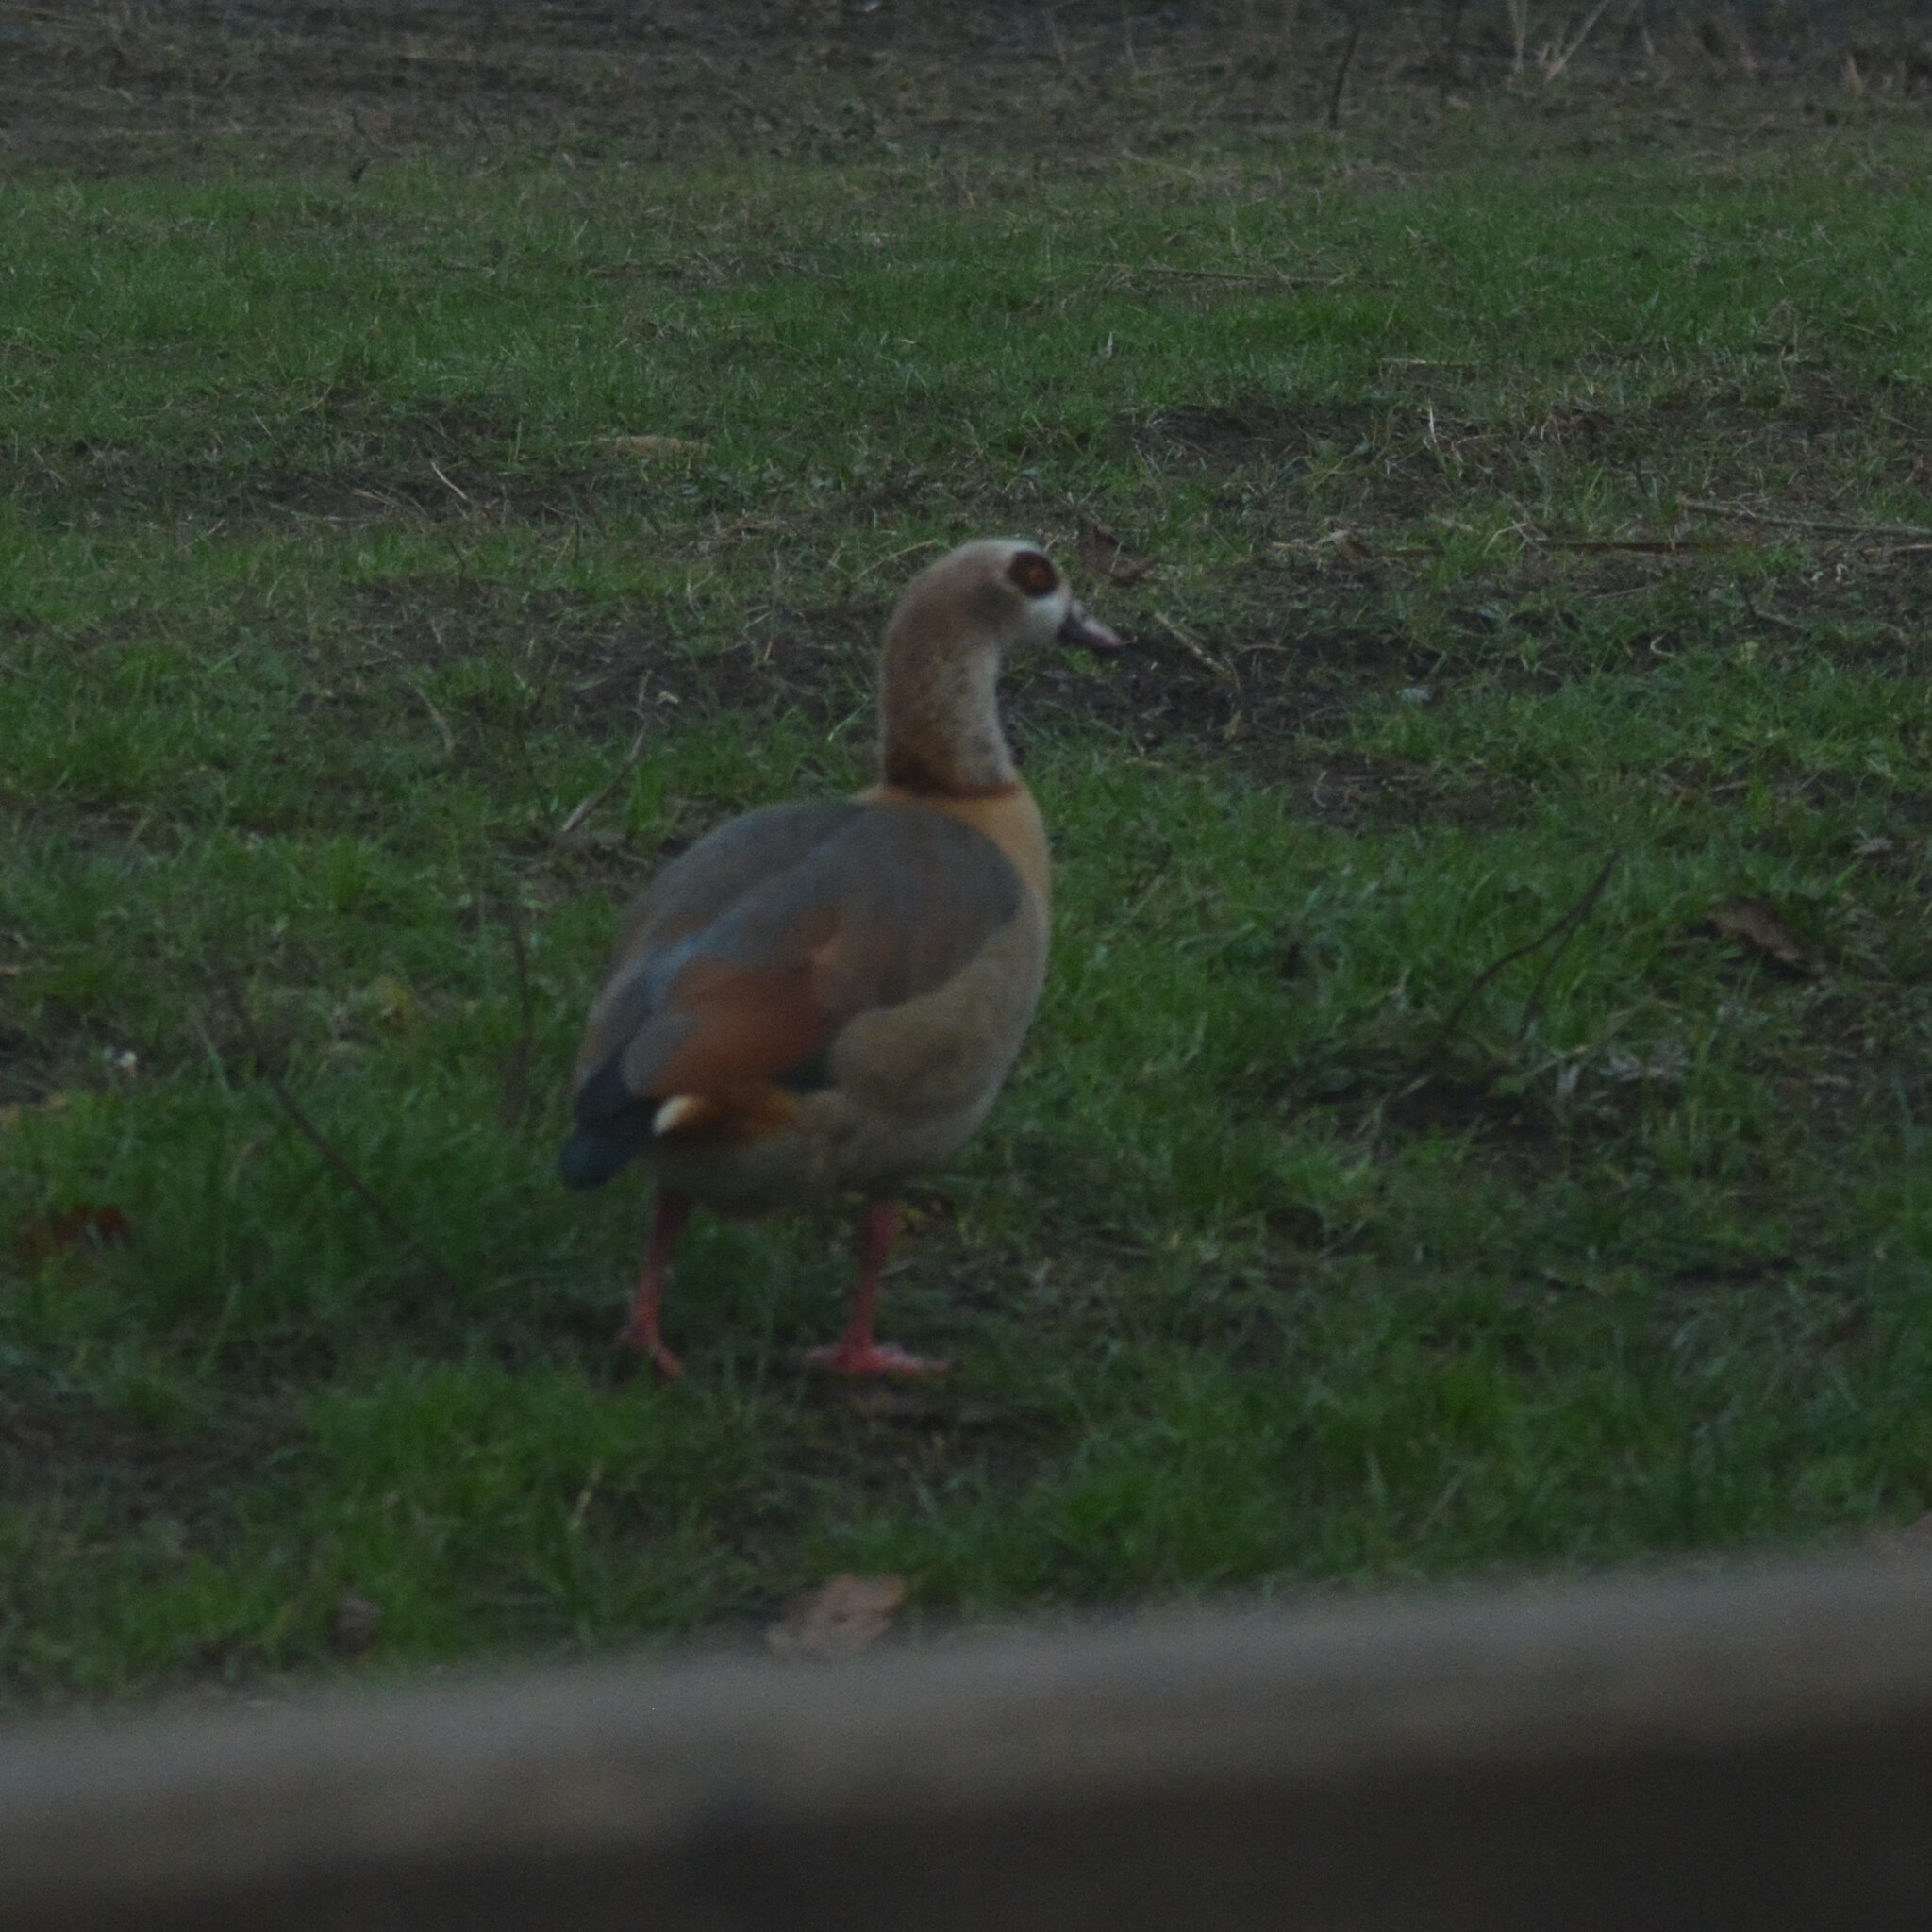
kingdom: Animalia
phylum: Chordata
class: Aves
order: Anseriformes
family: Anatidae
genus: Alopochen
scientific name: Alopochen aegyptiaca
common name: Egyptian goose
